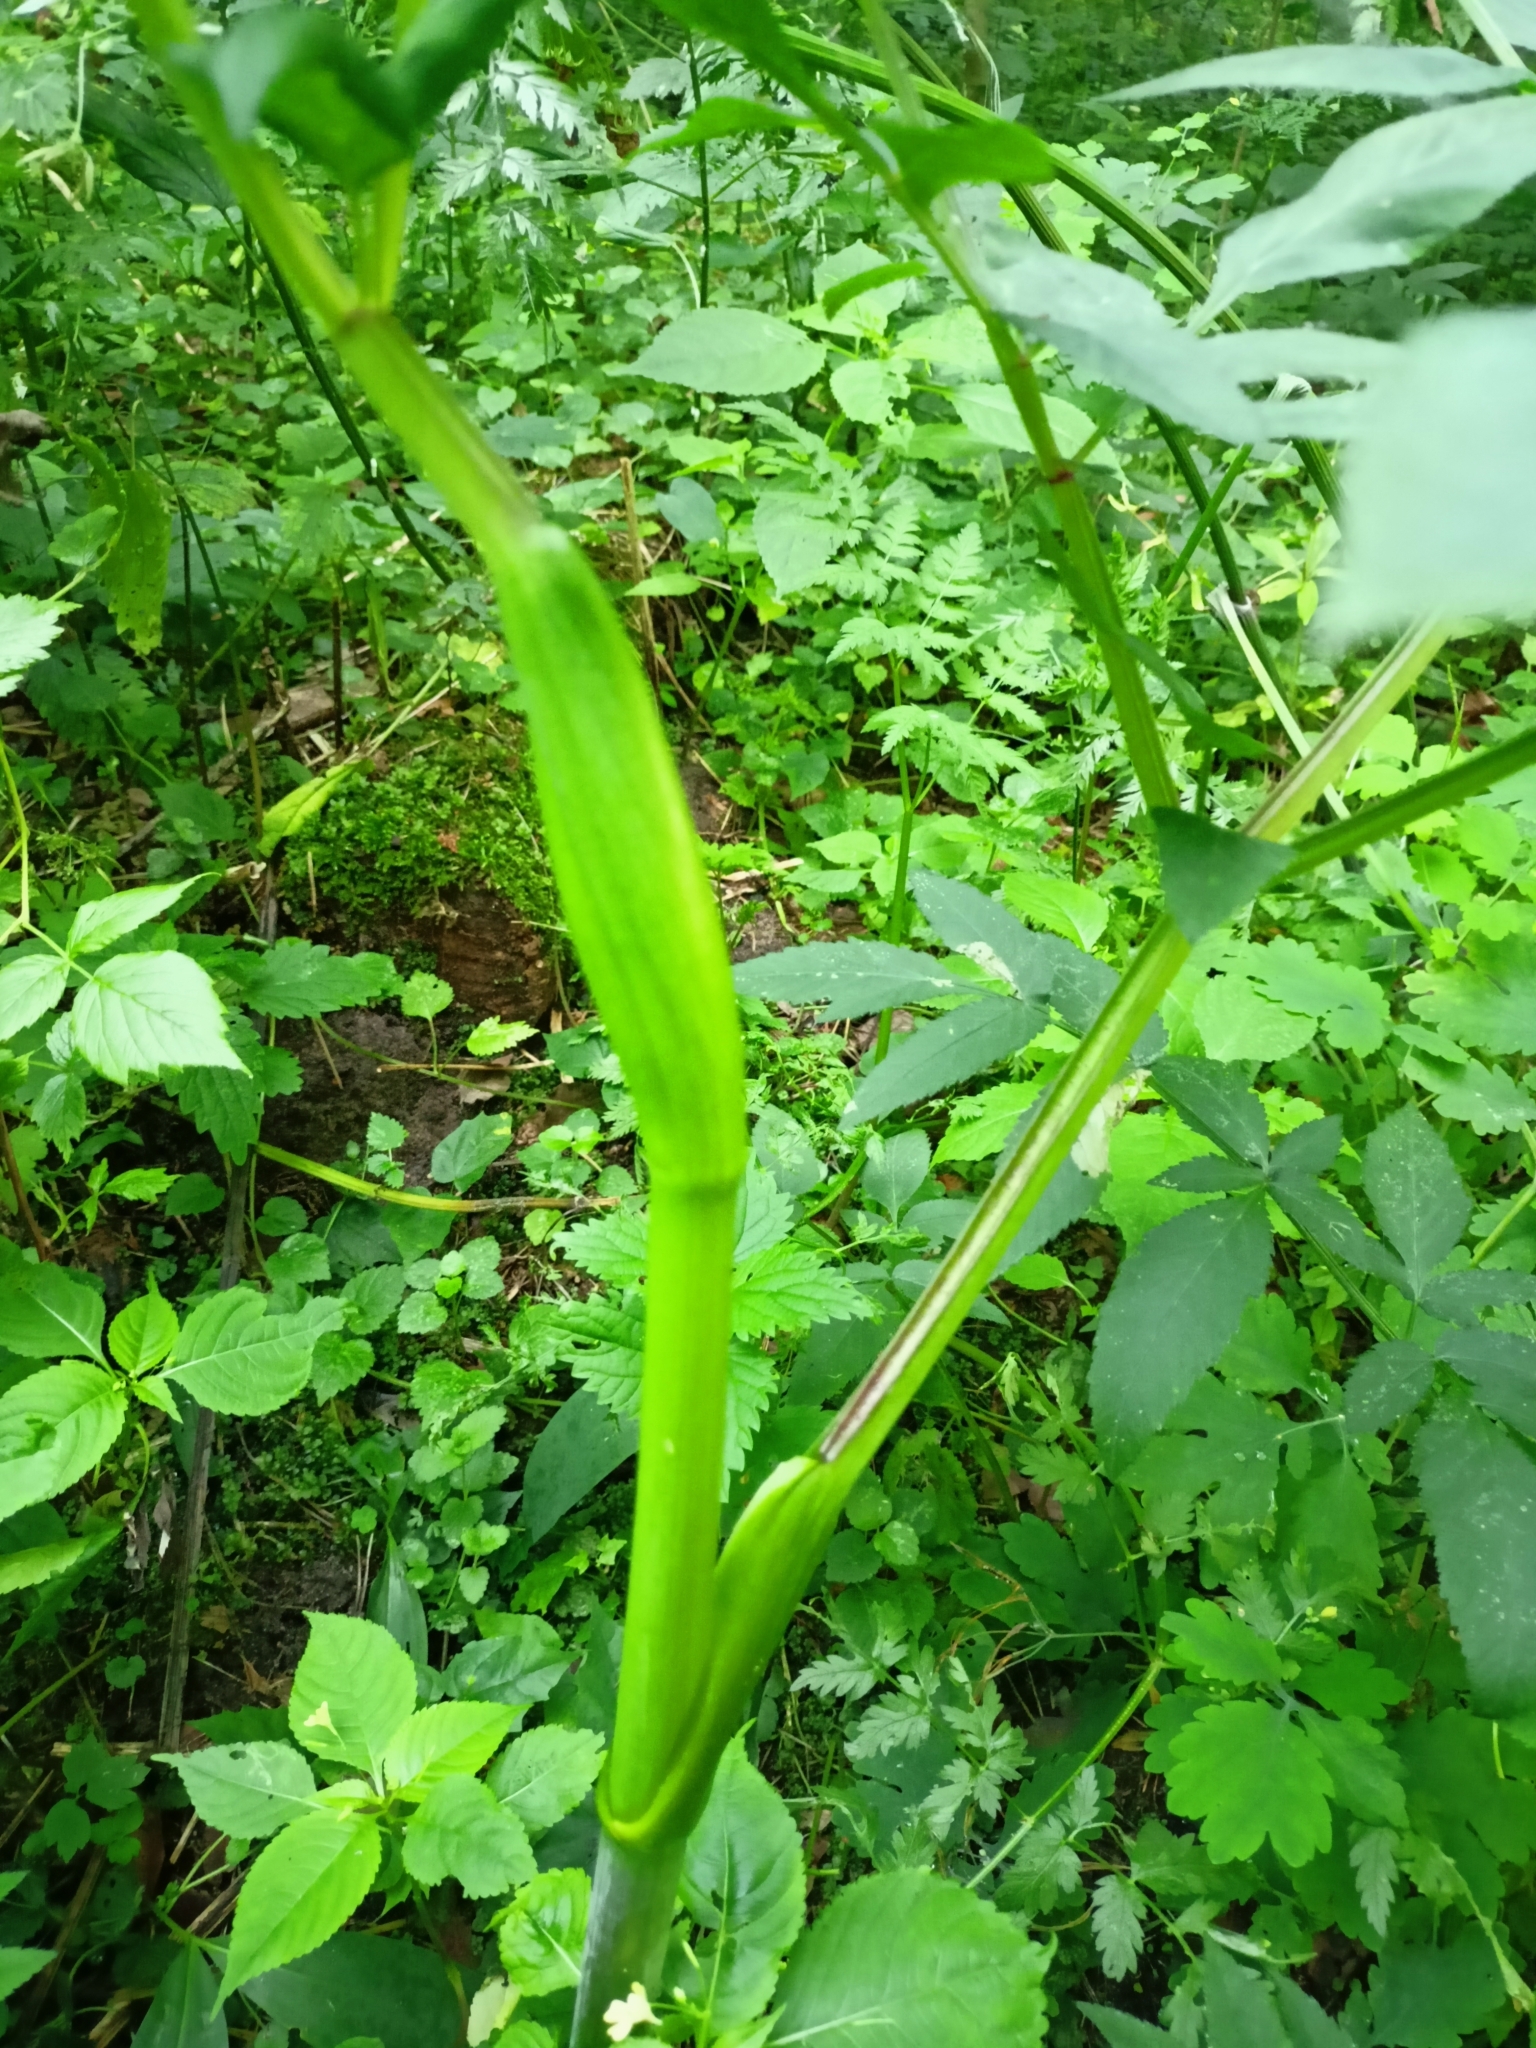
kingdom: Plantae
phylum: Tracheophyta
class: Magnoliopsida
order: Apiales
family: Apiaceae
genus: Angelica
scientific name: Angelica sylvestris
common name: Wild angelica
